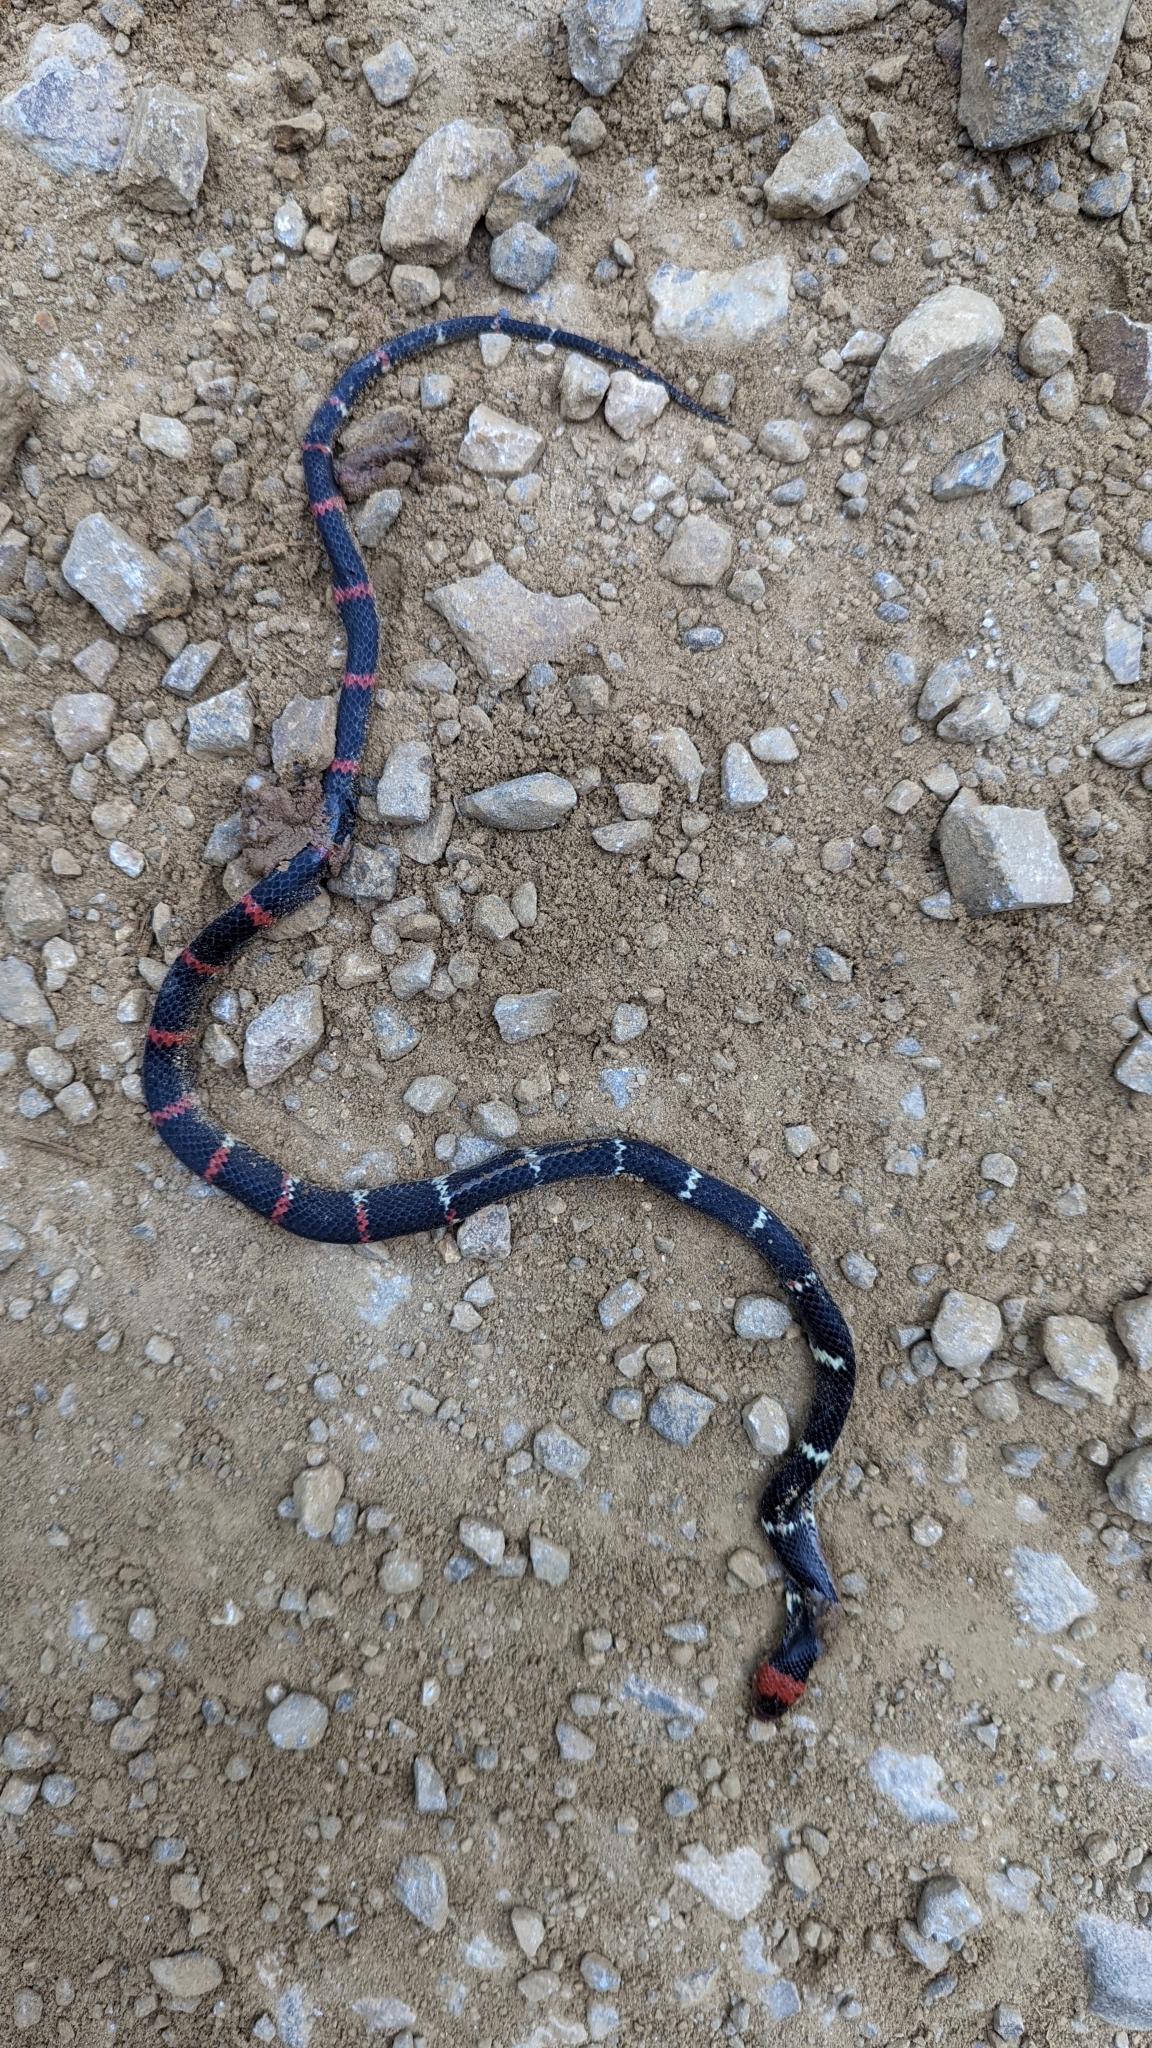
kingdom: Animalia
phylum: Chordata
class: Squamata
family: Colubridae
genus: Oxyrhopus
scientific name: Oxyrhopus erdisii
